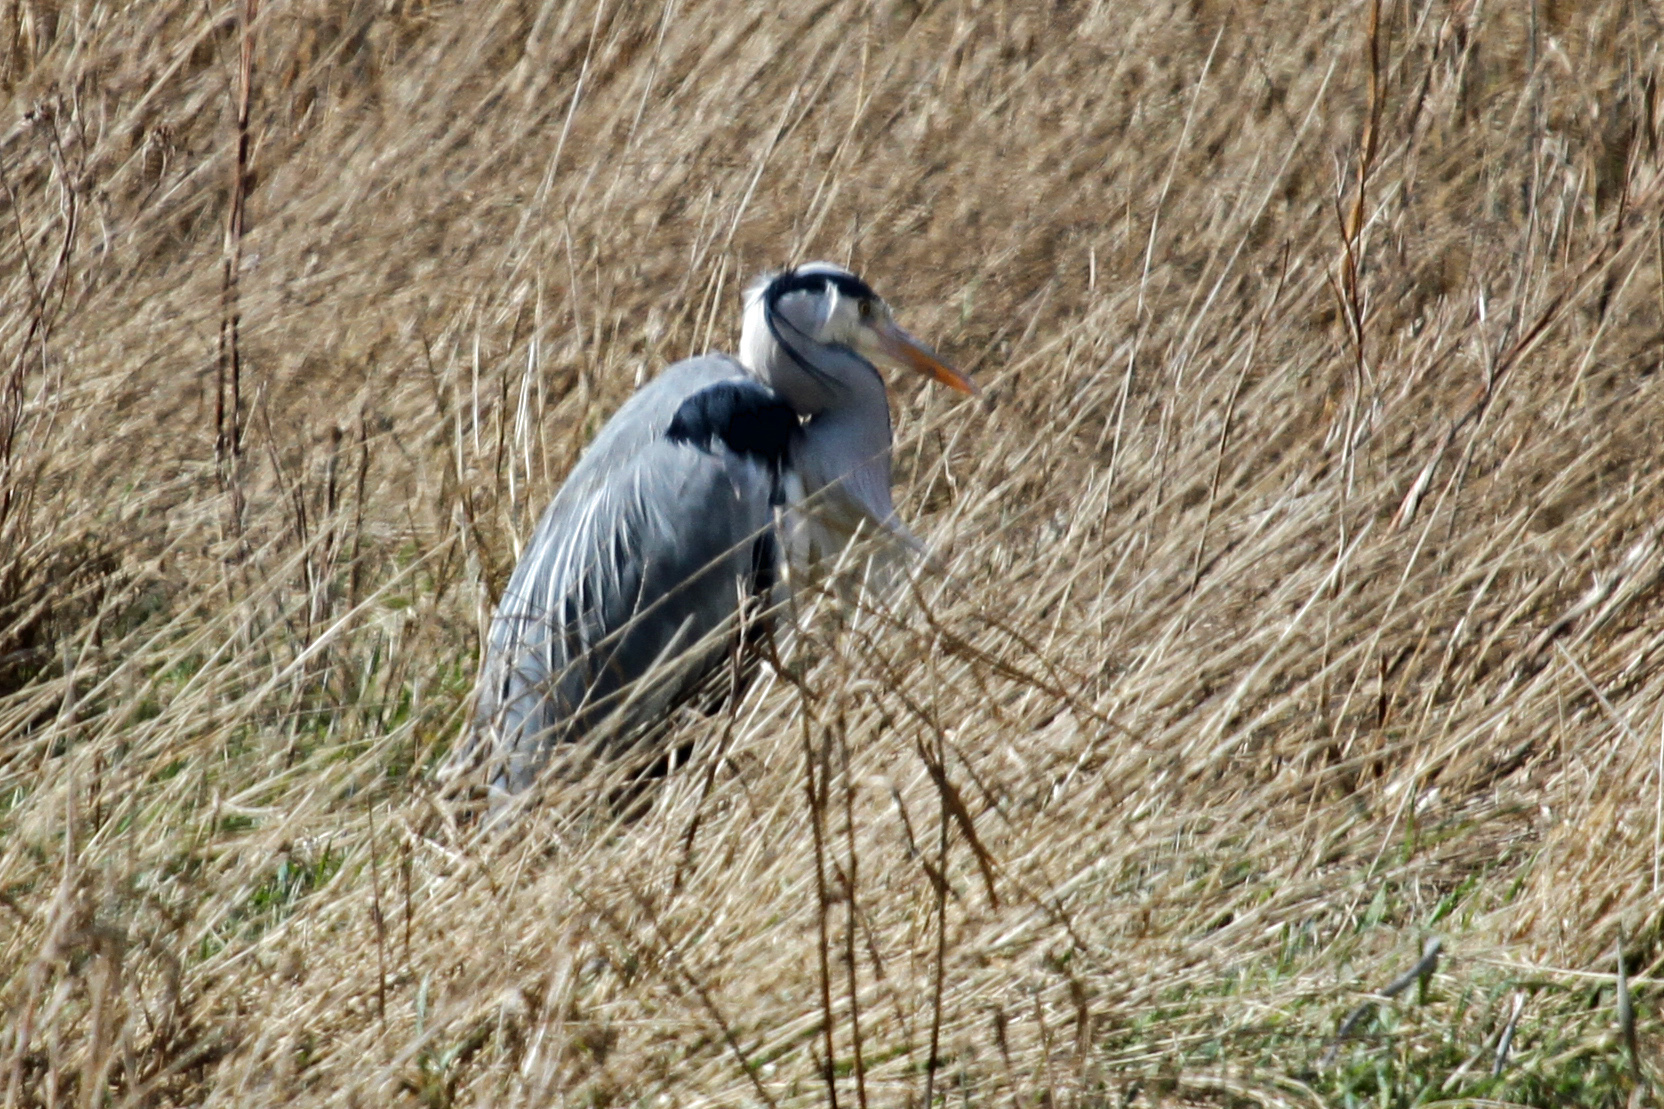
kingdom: Animalia
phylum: Chordata
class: Aves
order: Pelecaniformes
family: Ardeidae
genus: Ardea
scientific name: Ardea cinerea
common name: Grey heron
